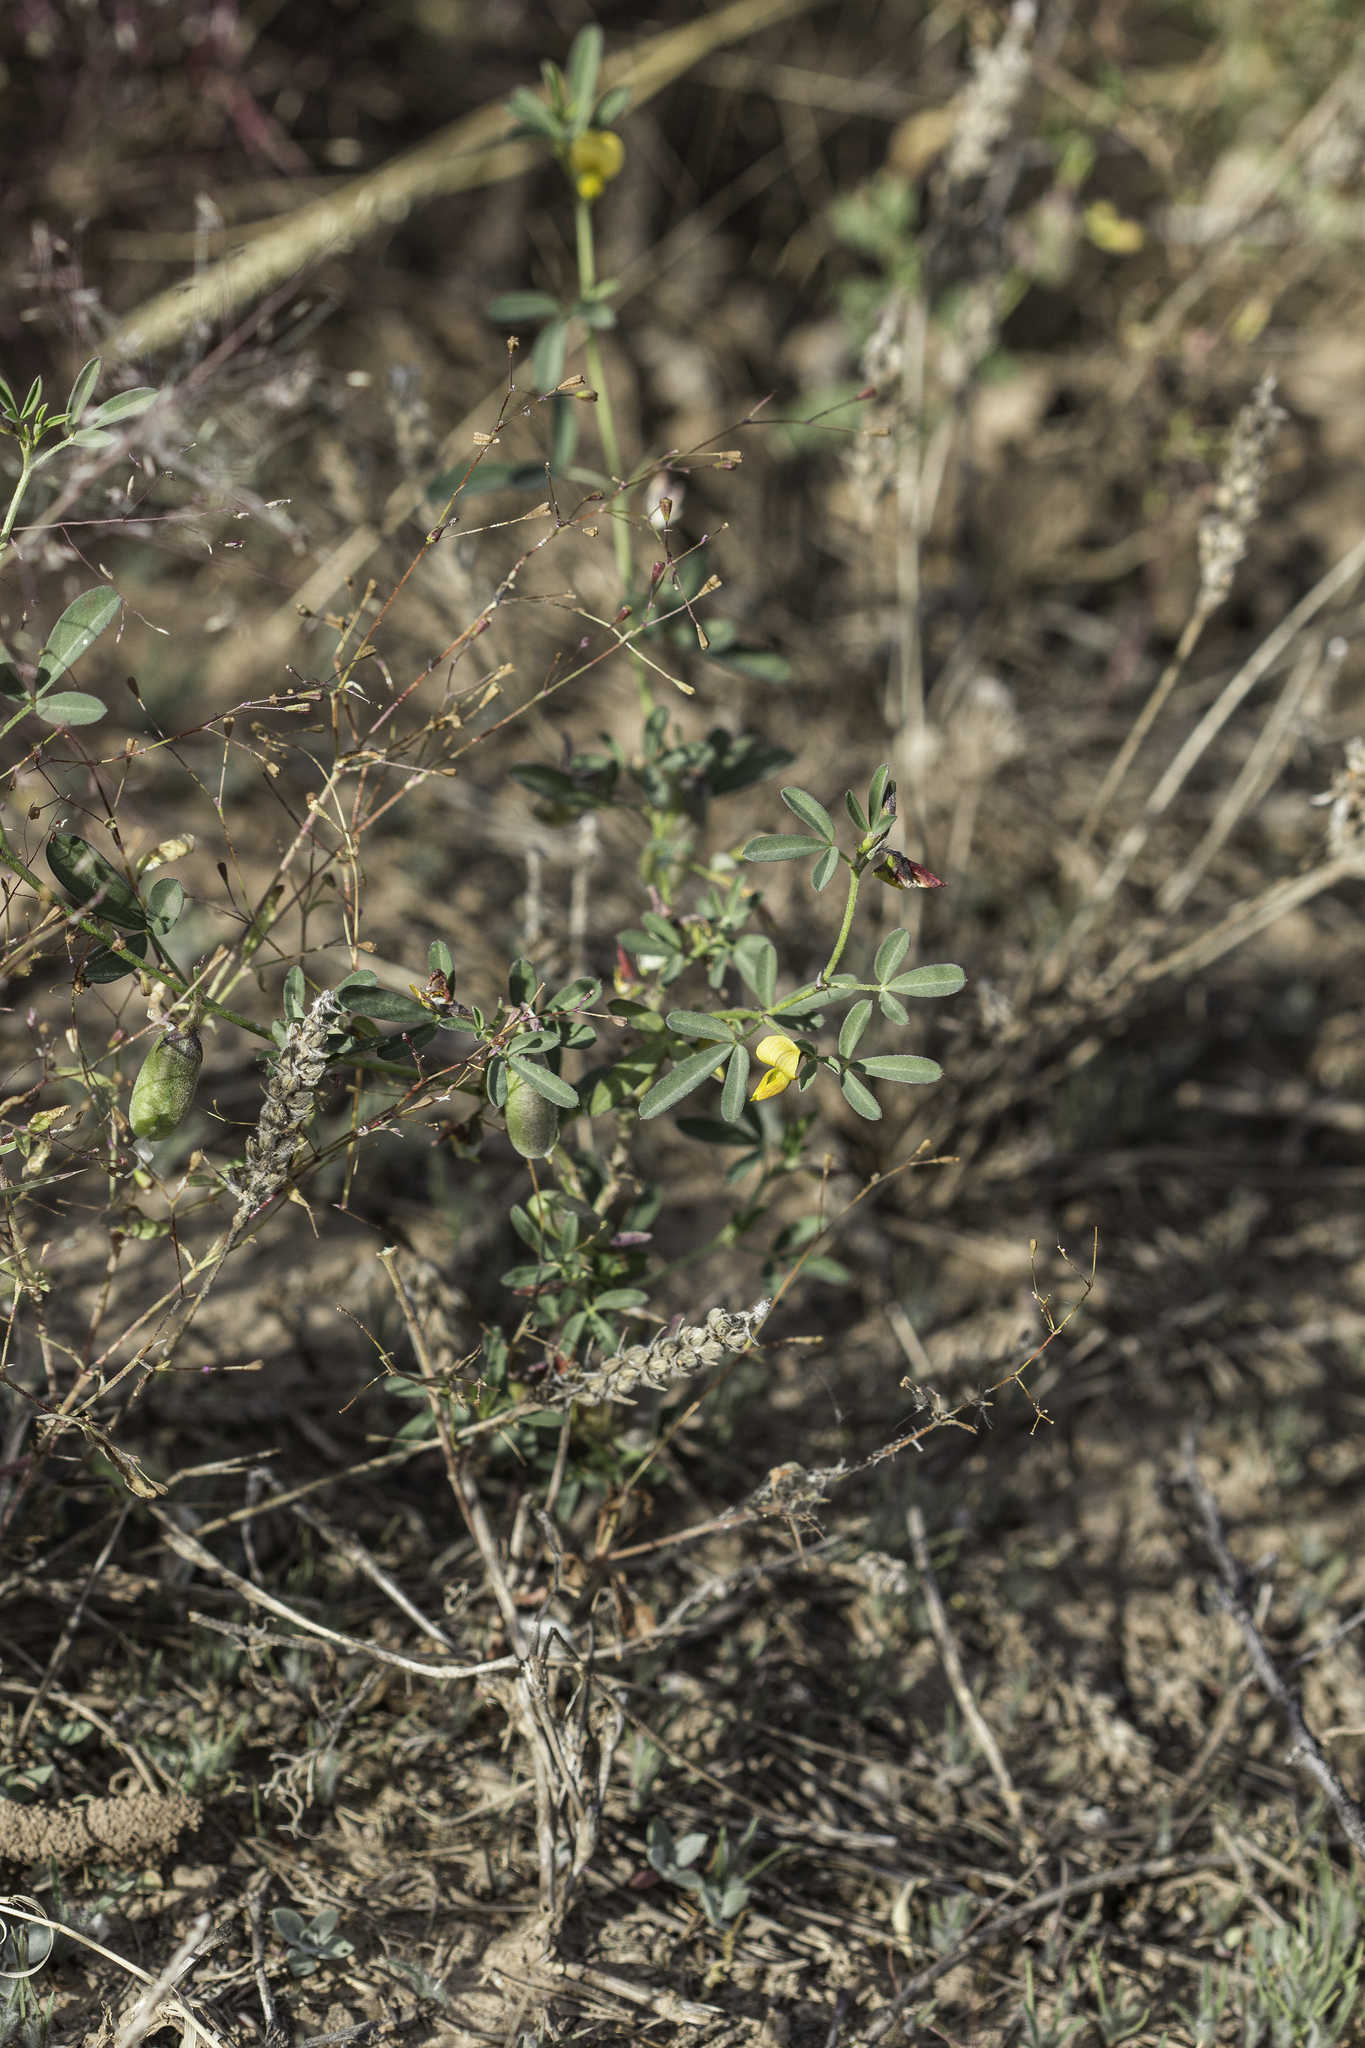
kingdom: Plantae
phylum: Tracheophyta
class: Magnoliopsida
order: Fabales
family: Fabaceae
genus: Crotalaria
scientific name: Crotalaria pumila
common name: Low rattlebox
